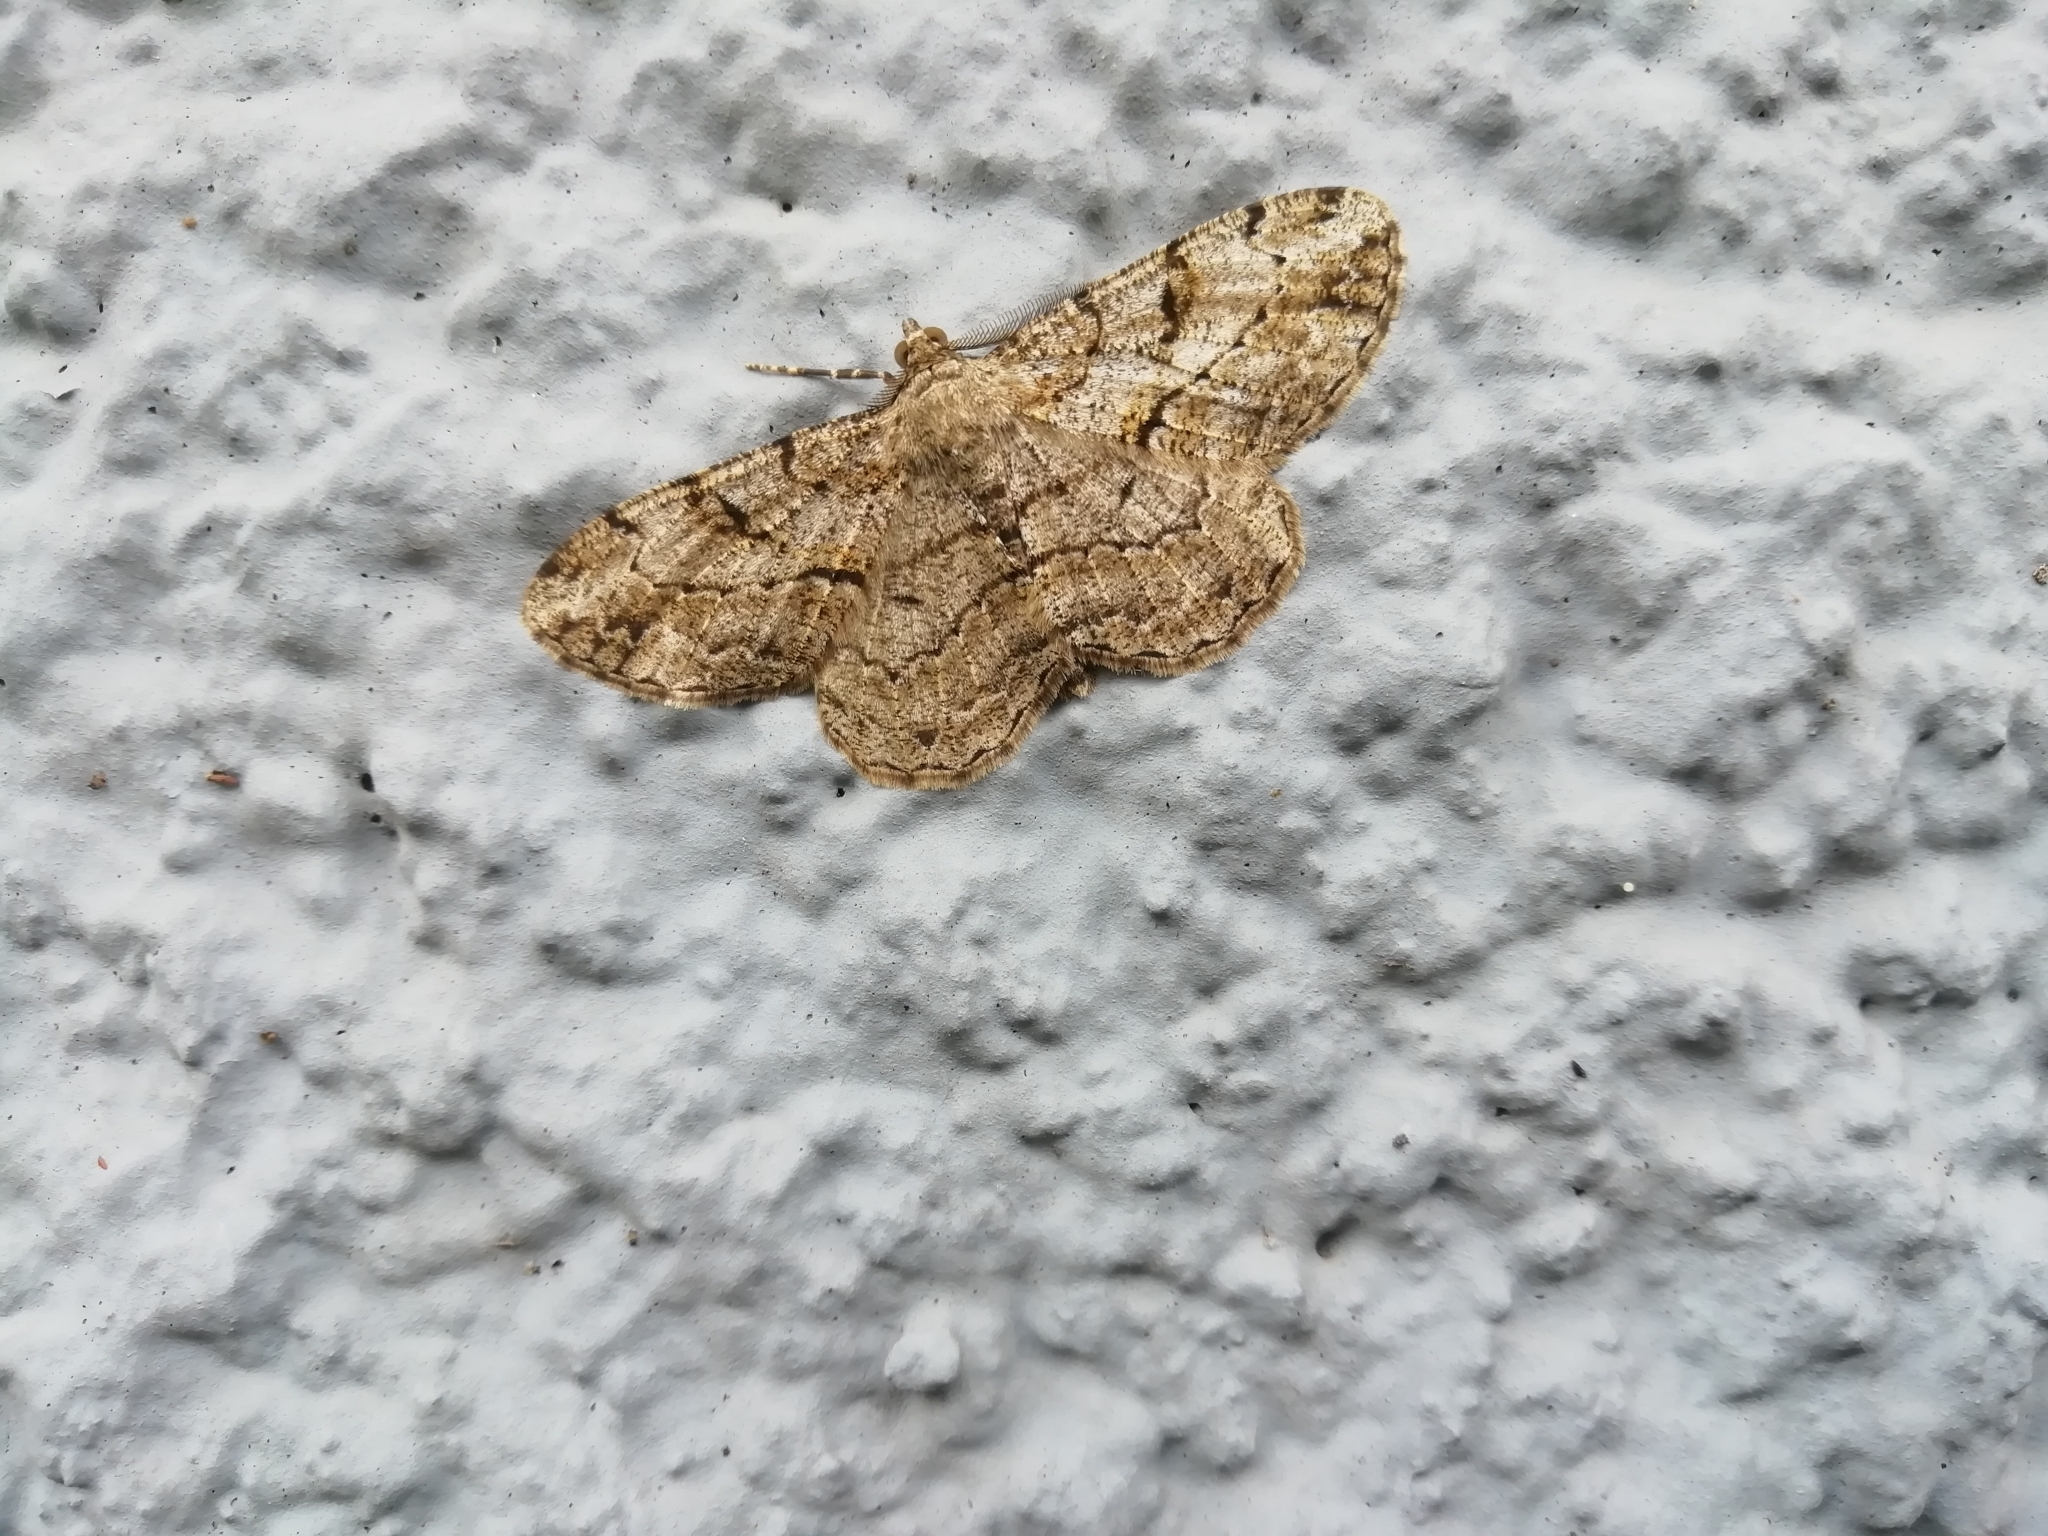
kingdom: Animalia
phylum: Arthropoda
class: Insecta
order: Lepidoptera
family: Geometridae
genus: Peribatodes
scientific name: Peribatodes rhomboidaria
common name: Willow beauty
